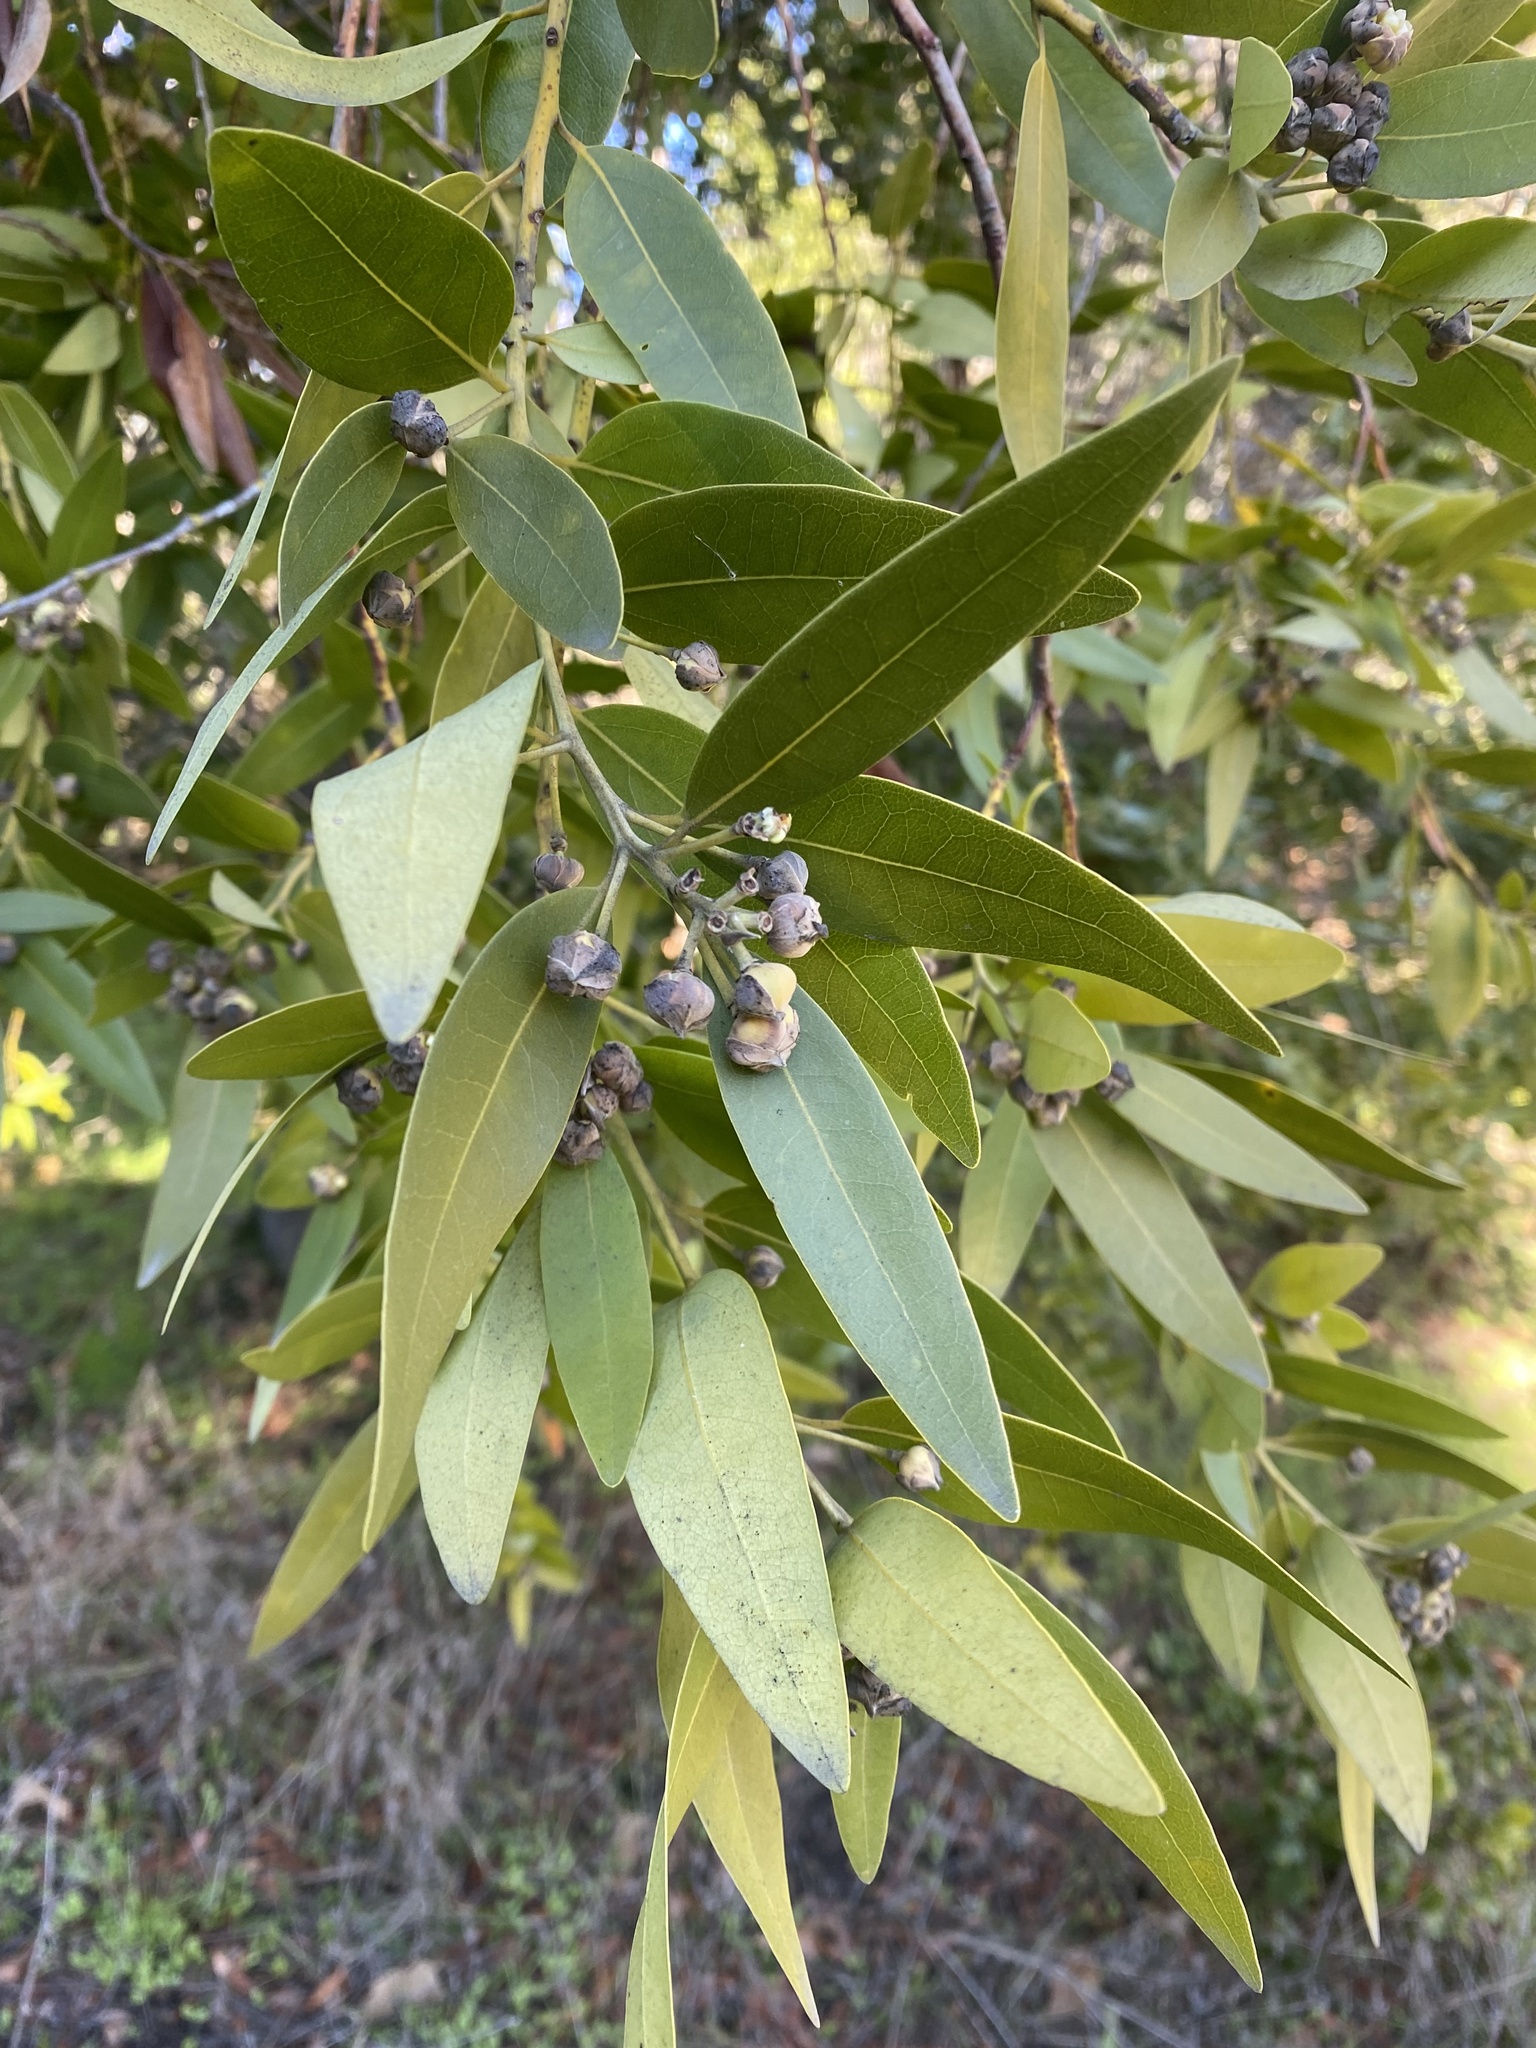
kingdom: Plantae
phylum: Tracheophyta
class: Magnoliopsida
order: Laurales
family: Lauraceae
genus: Umbellularia
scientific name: Umbellularia californica
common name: California bay
